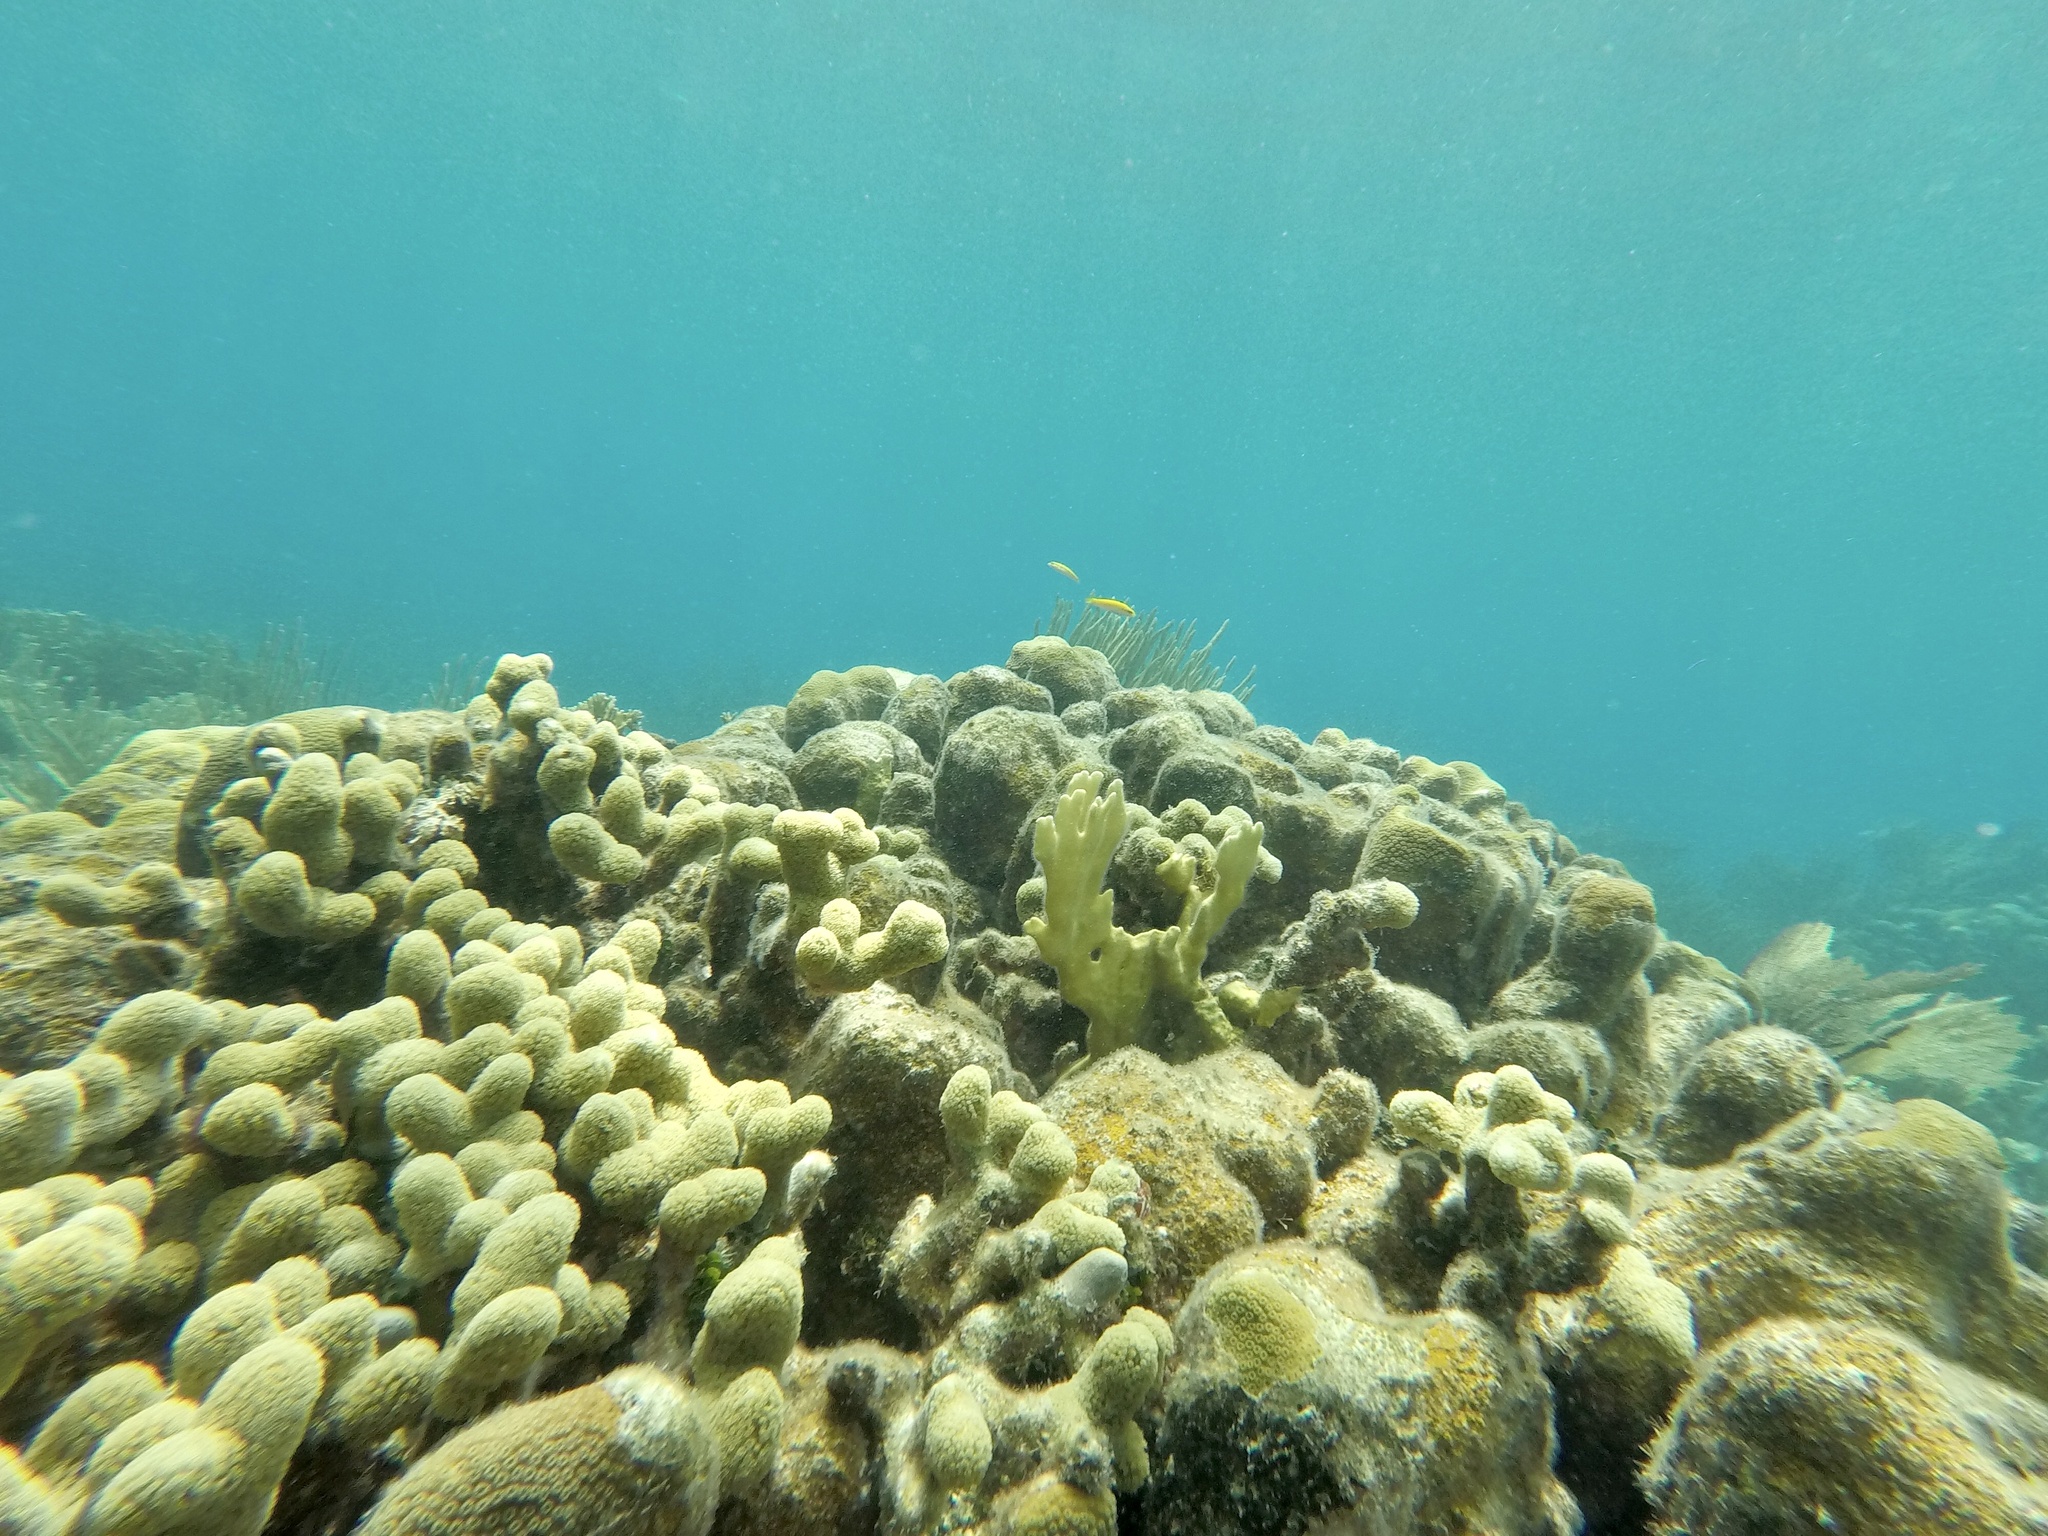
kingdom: Animalia
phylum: Cnidaria
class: Anthozoa
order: Scleractinia
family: Poritidae
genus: Porites
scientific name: Porites porites
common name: Finger coral
